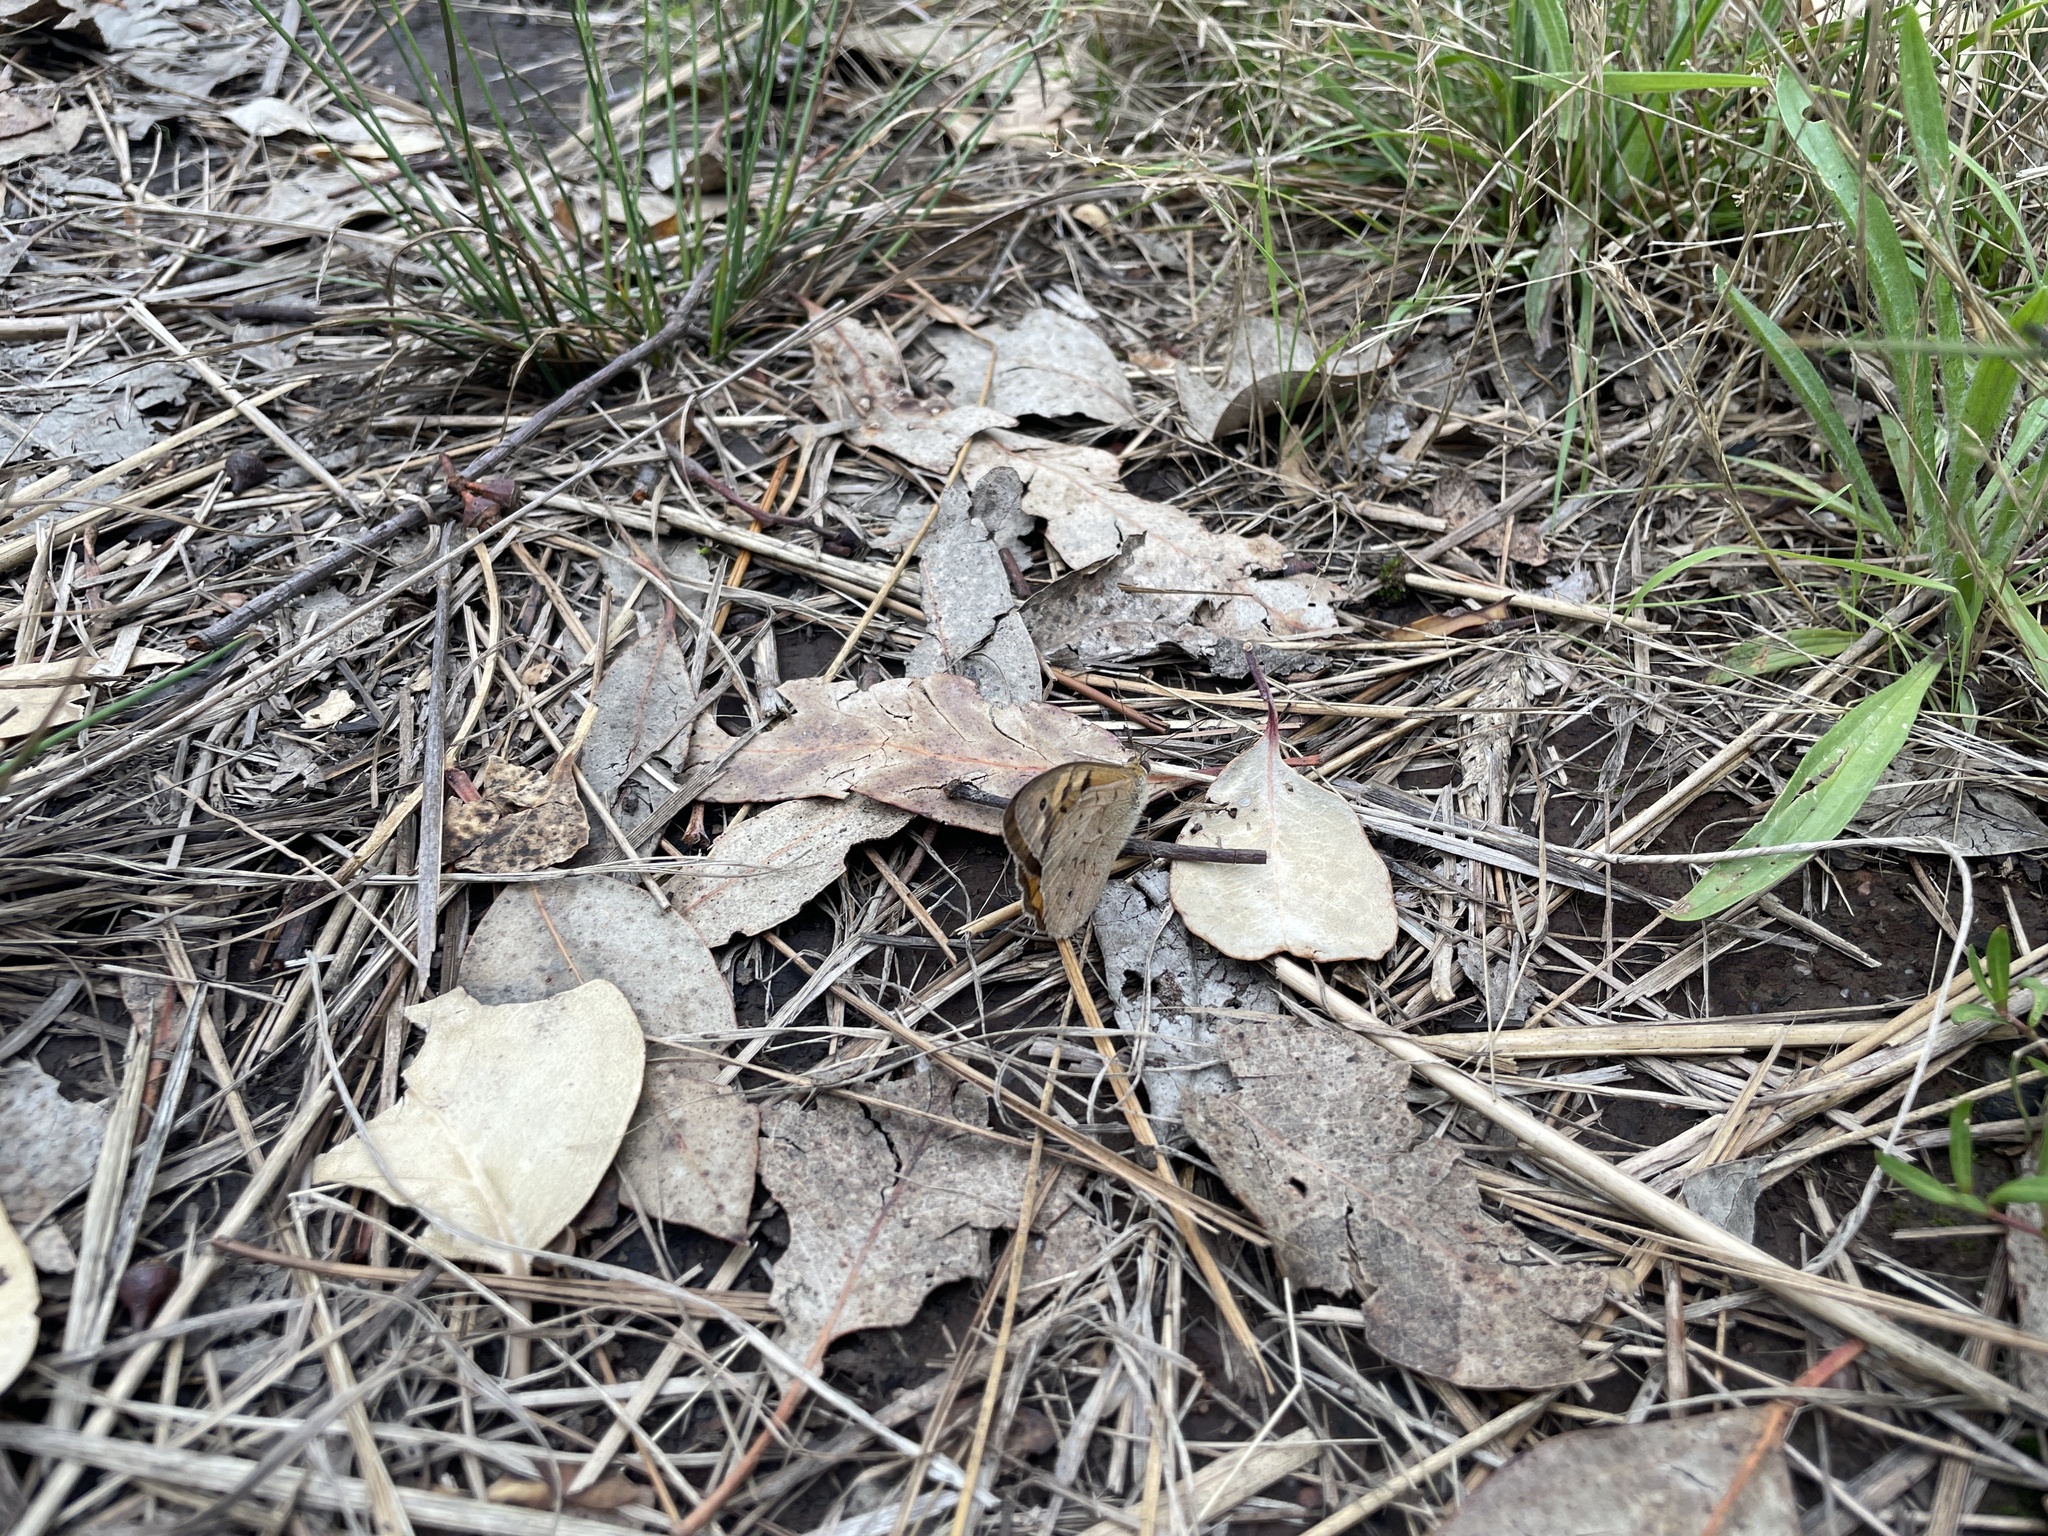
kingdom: Animalia
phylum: Arthropoda
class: Insecta
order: Lepidoptera
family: Nymphalidae
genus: Heteronympha
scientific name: Heteronympha merope
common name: Common brown
